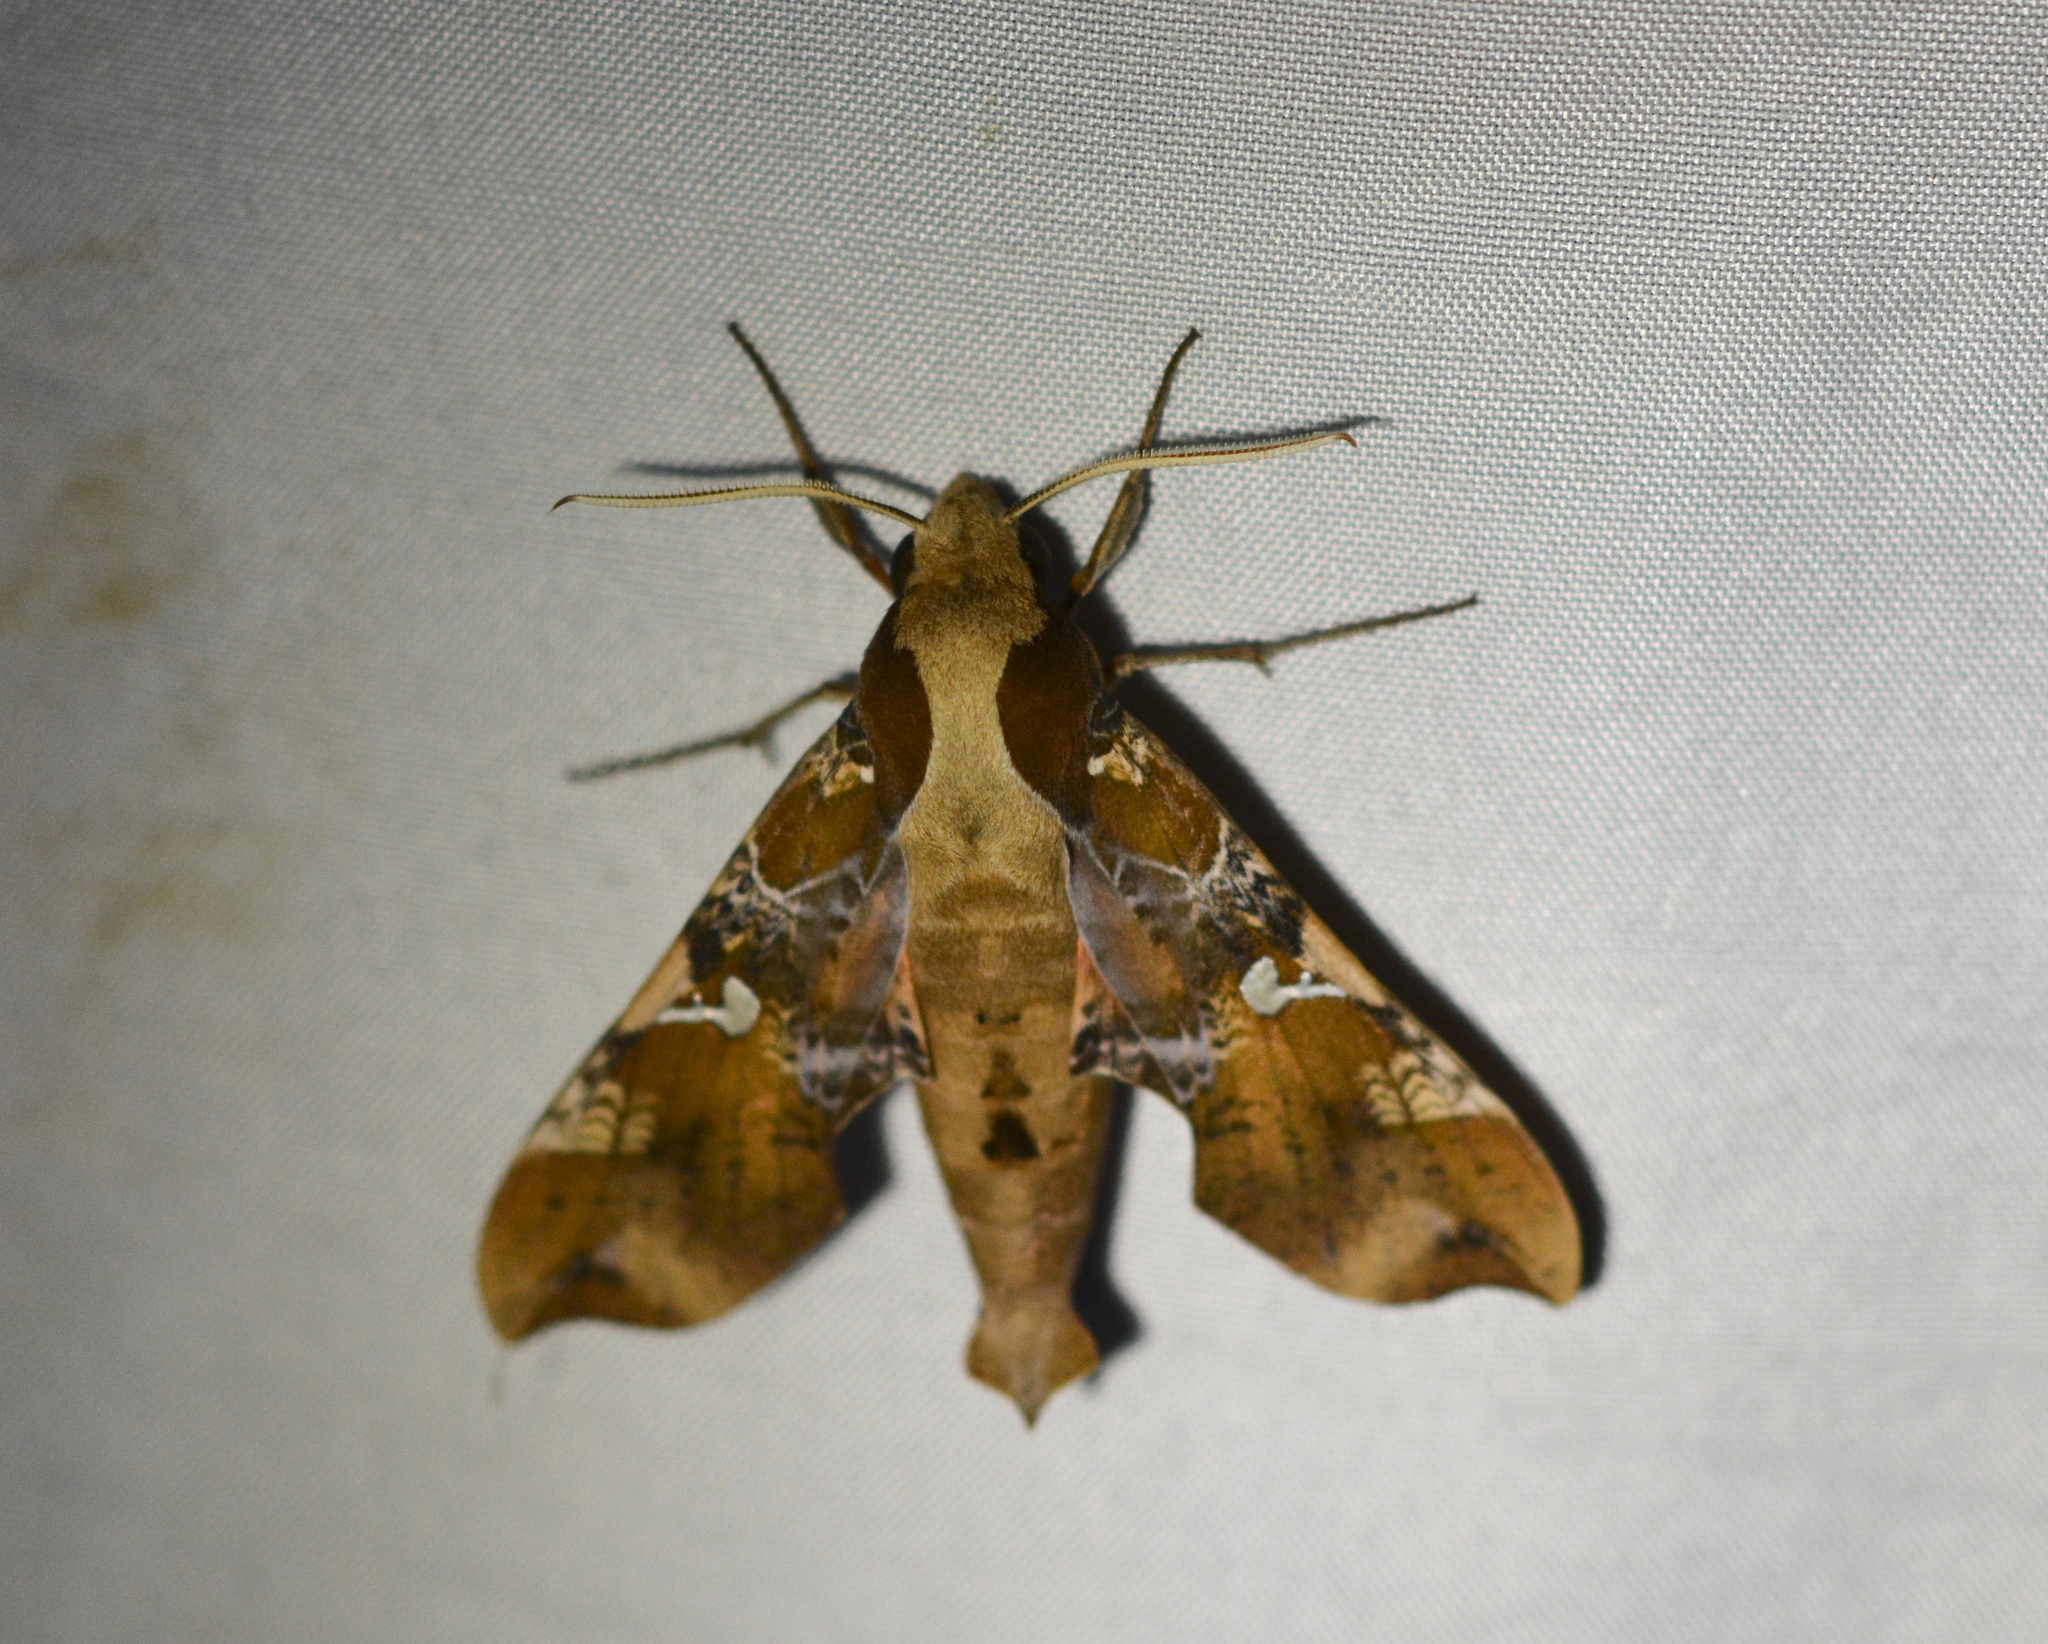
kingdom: Animalia
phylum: Arthropoda
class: Insecta
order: Lepidoptera
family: Sphingidae
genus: Callionima
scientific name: Callionima falcifera
